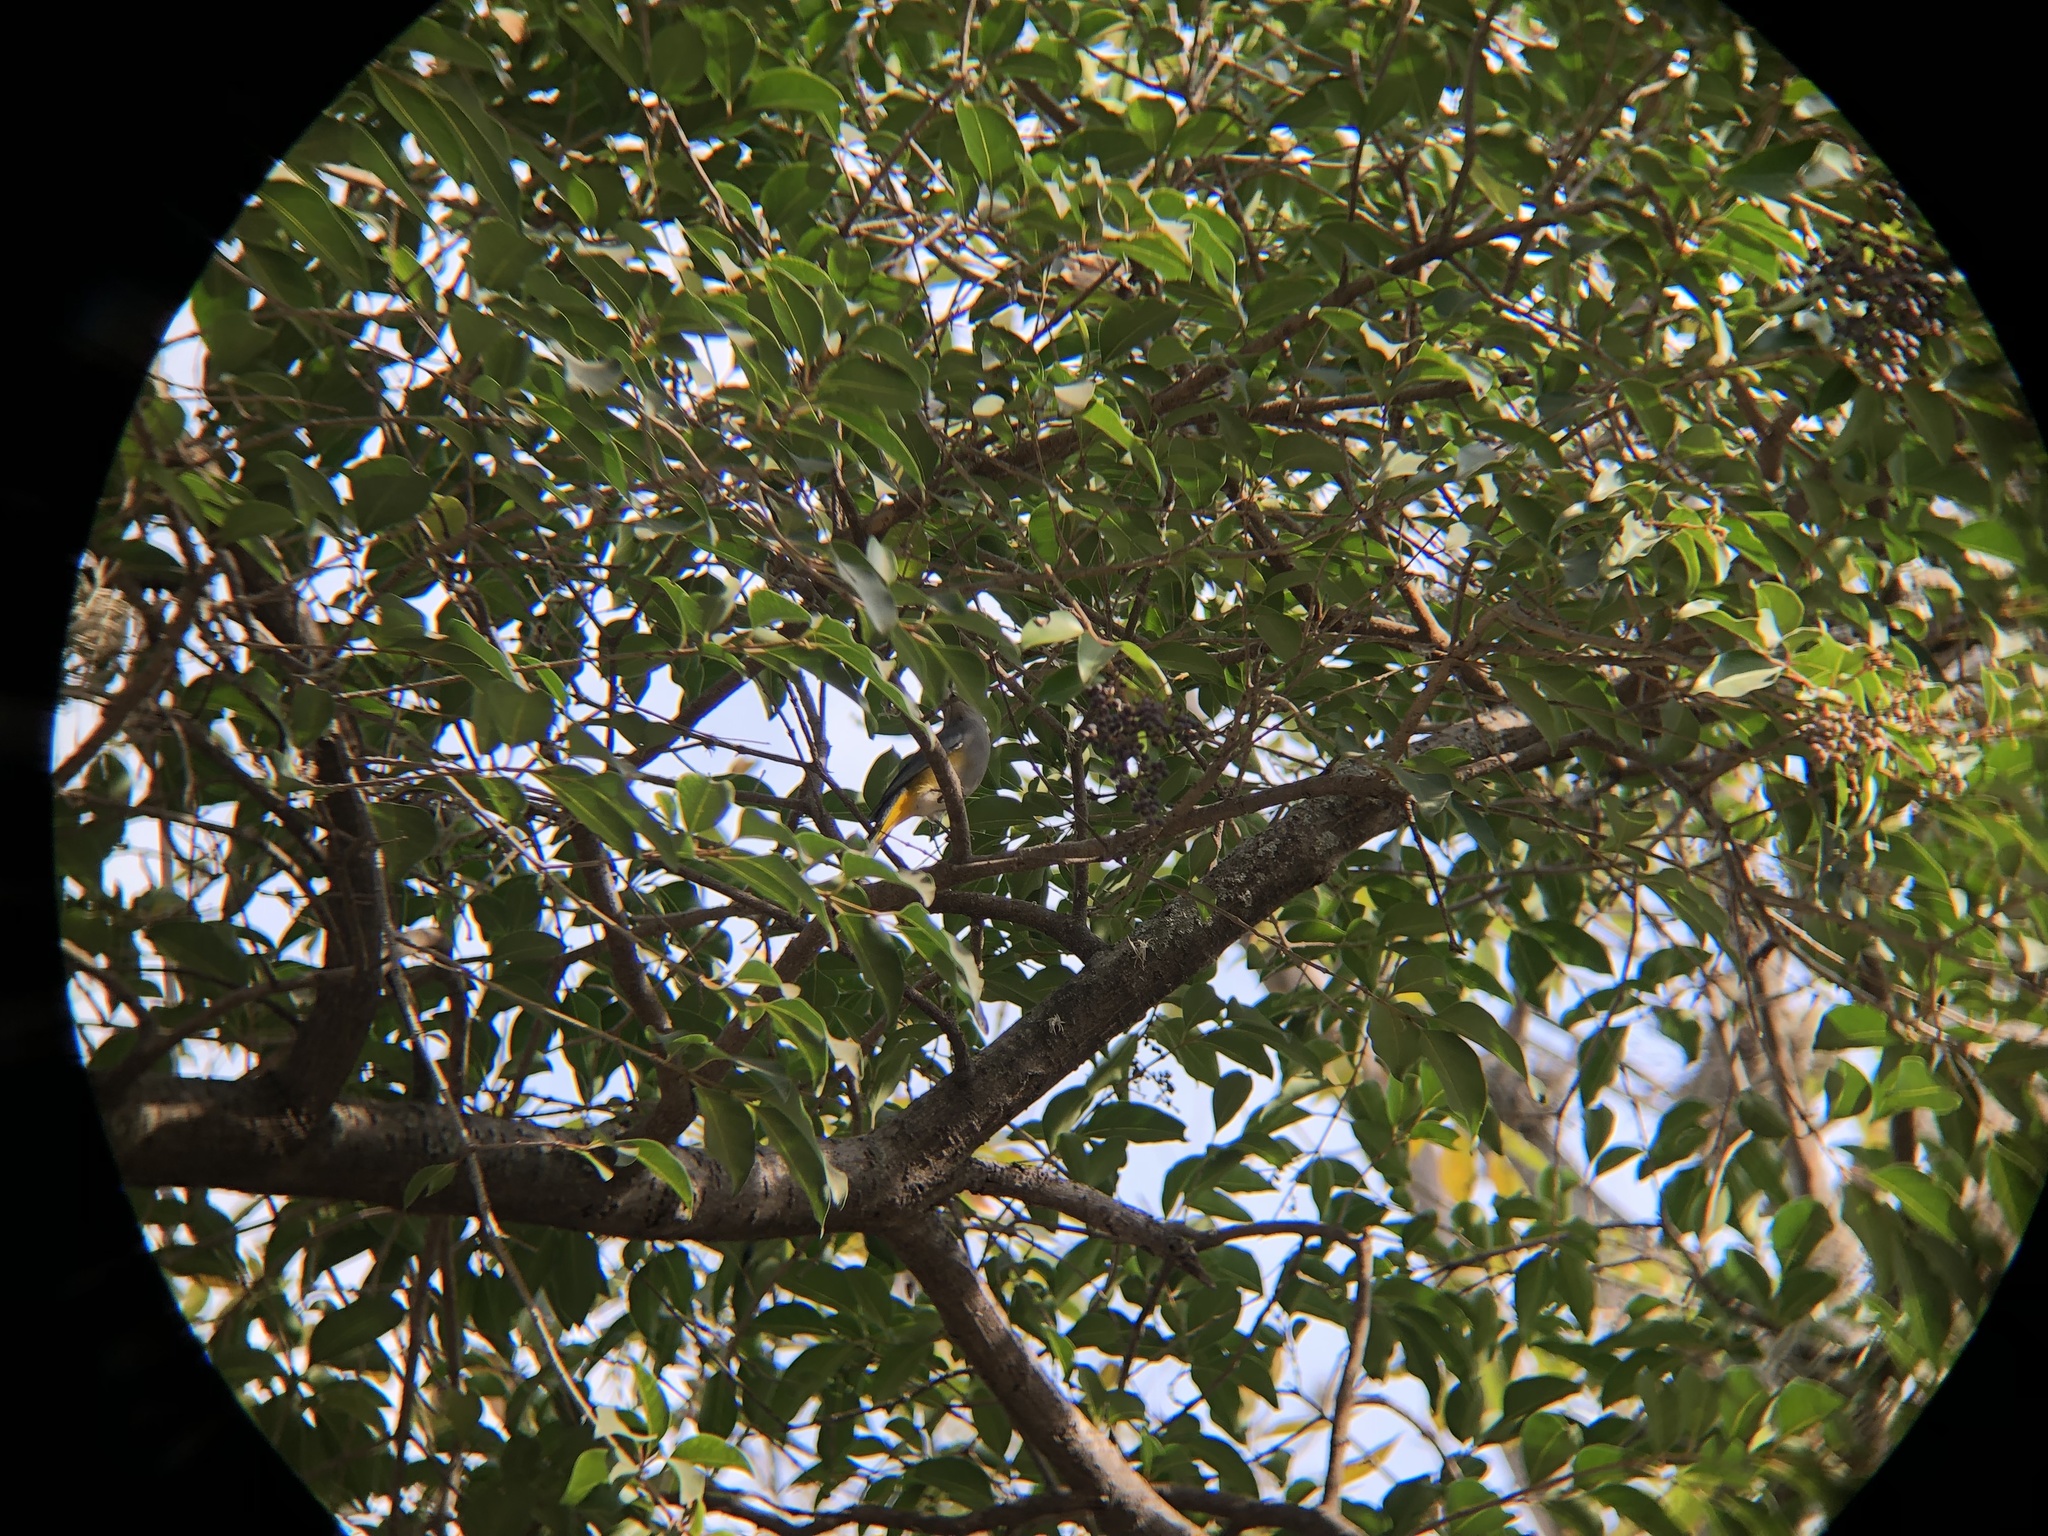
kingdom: Animalia
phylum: Chordata
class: Aves
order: Passeriformes
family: Ptilogonatidae
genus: Ptilogonys
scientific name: Ptilogonys cinereus
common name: Gray silky-flycatcher
